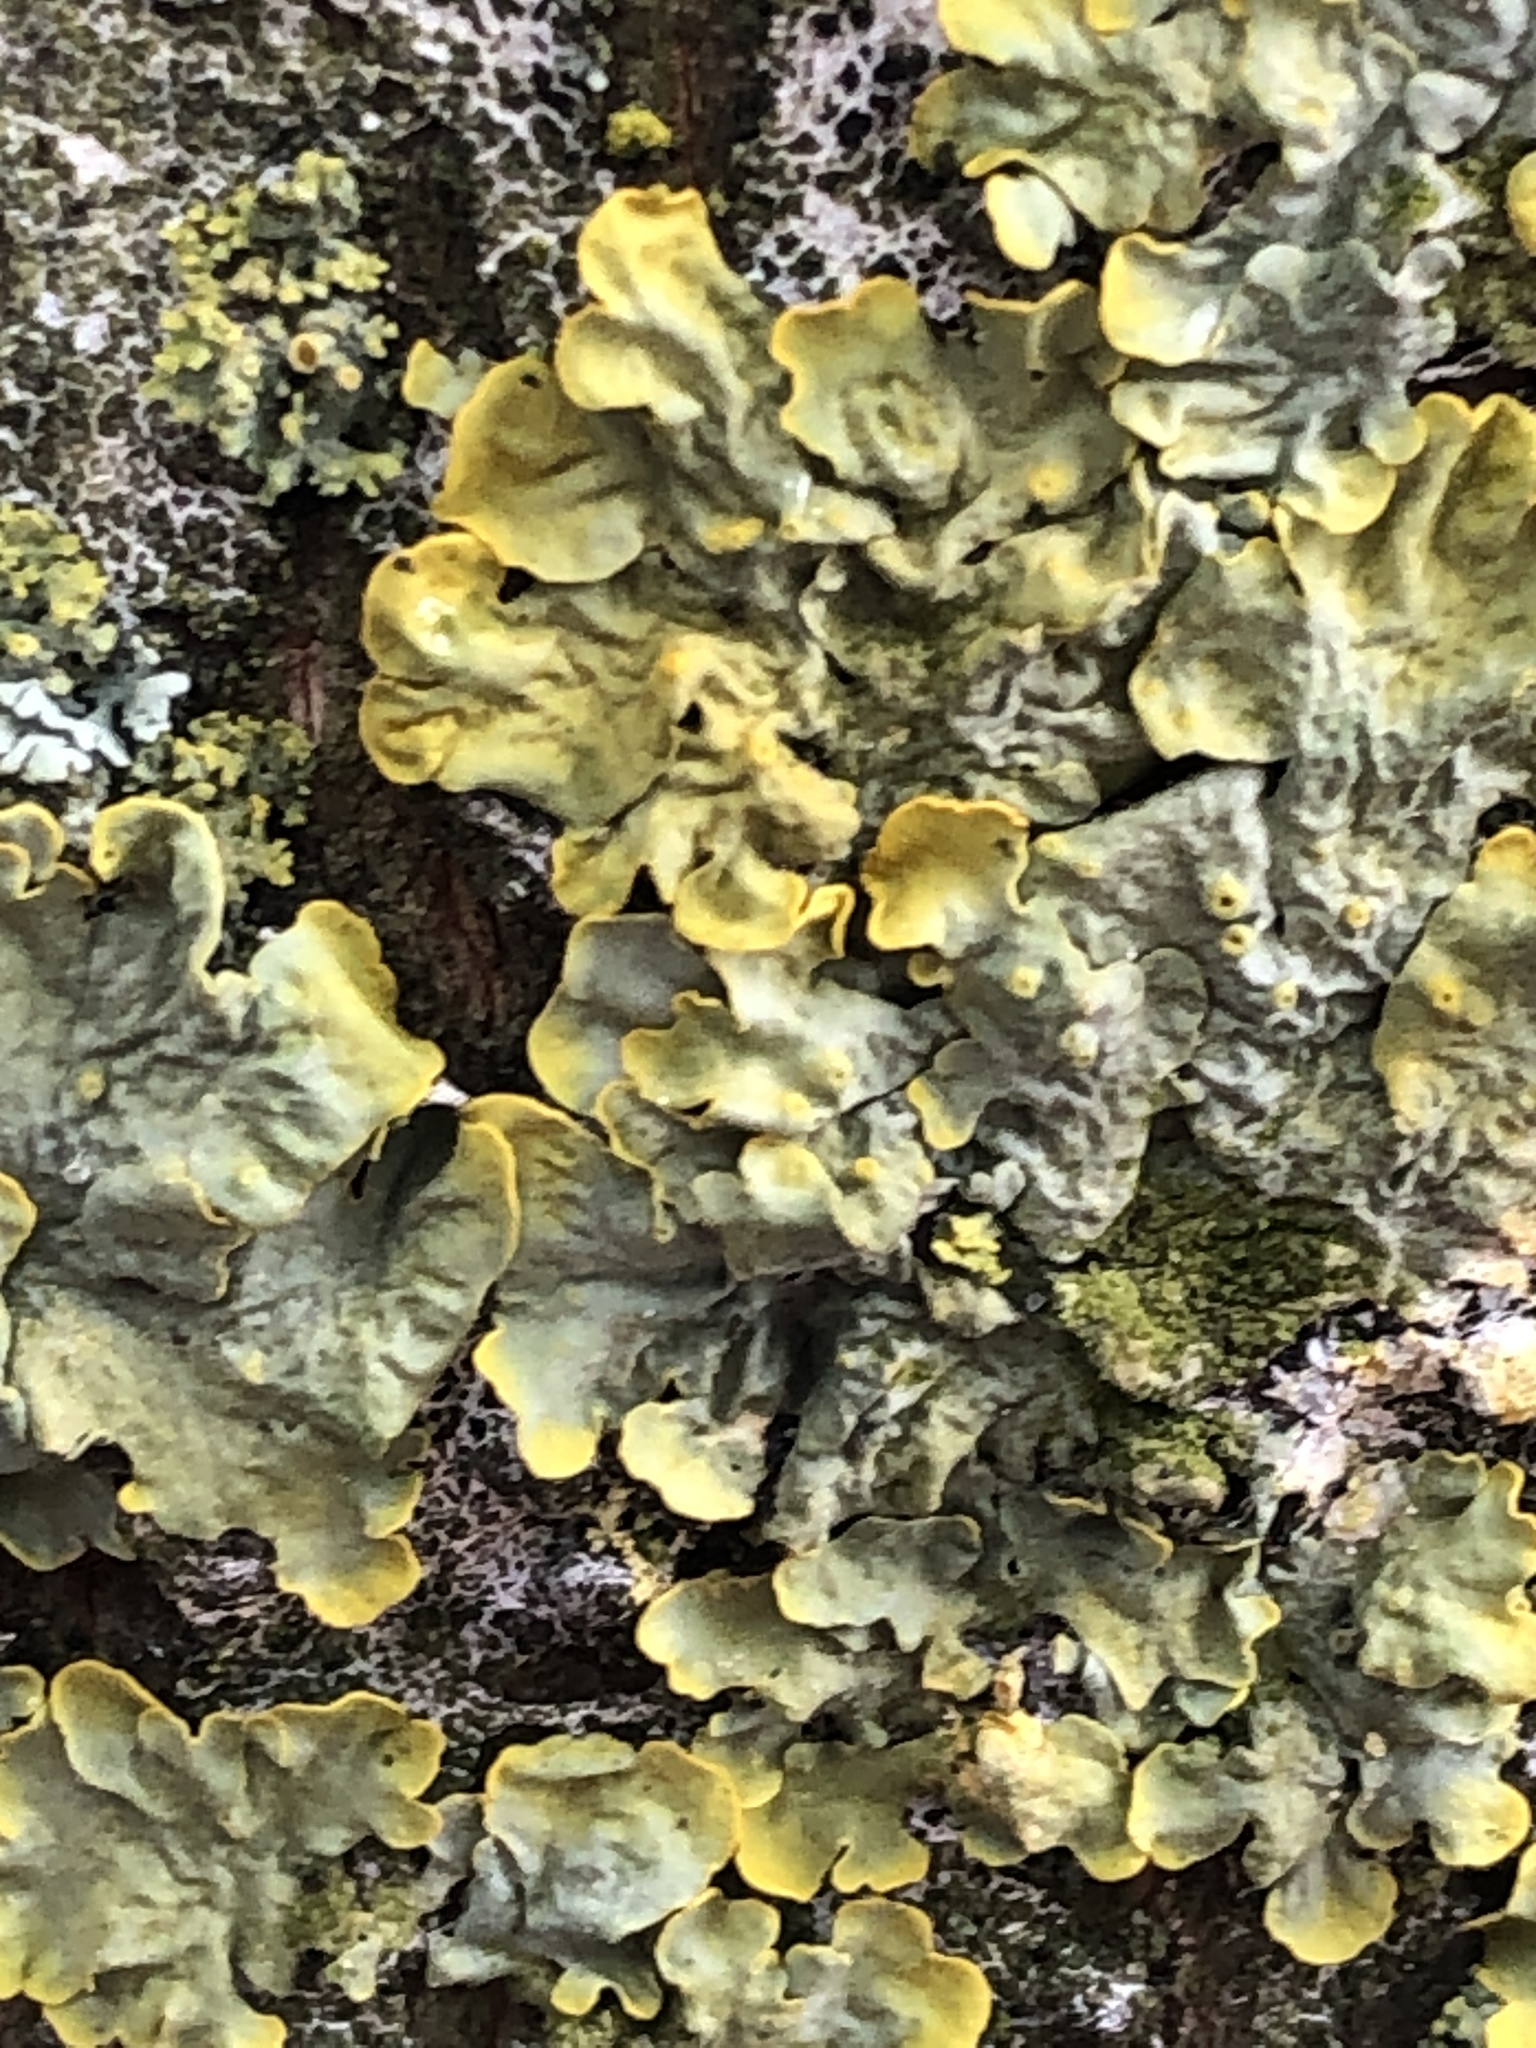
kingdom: Fungi
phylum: Ascomycota
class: Lecanoromycetes
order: Teloschistales
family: Teloschistaceae
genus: Xanthoria
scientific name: Xanthoria parietina
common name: Common orange lichen
